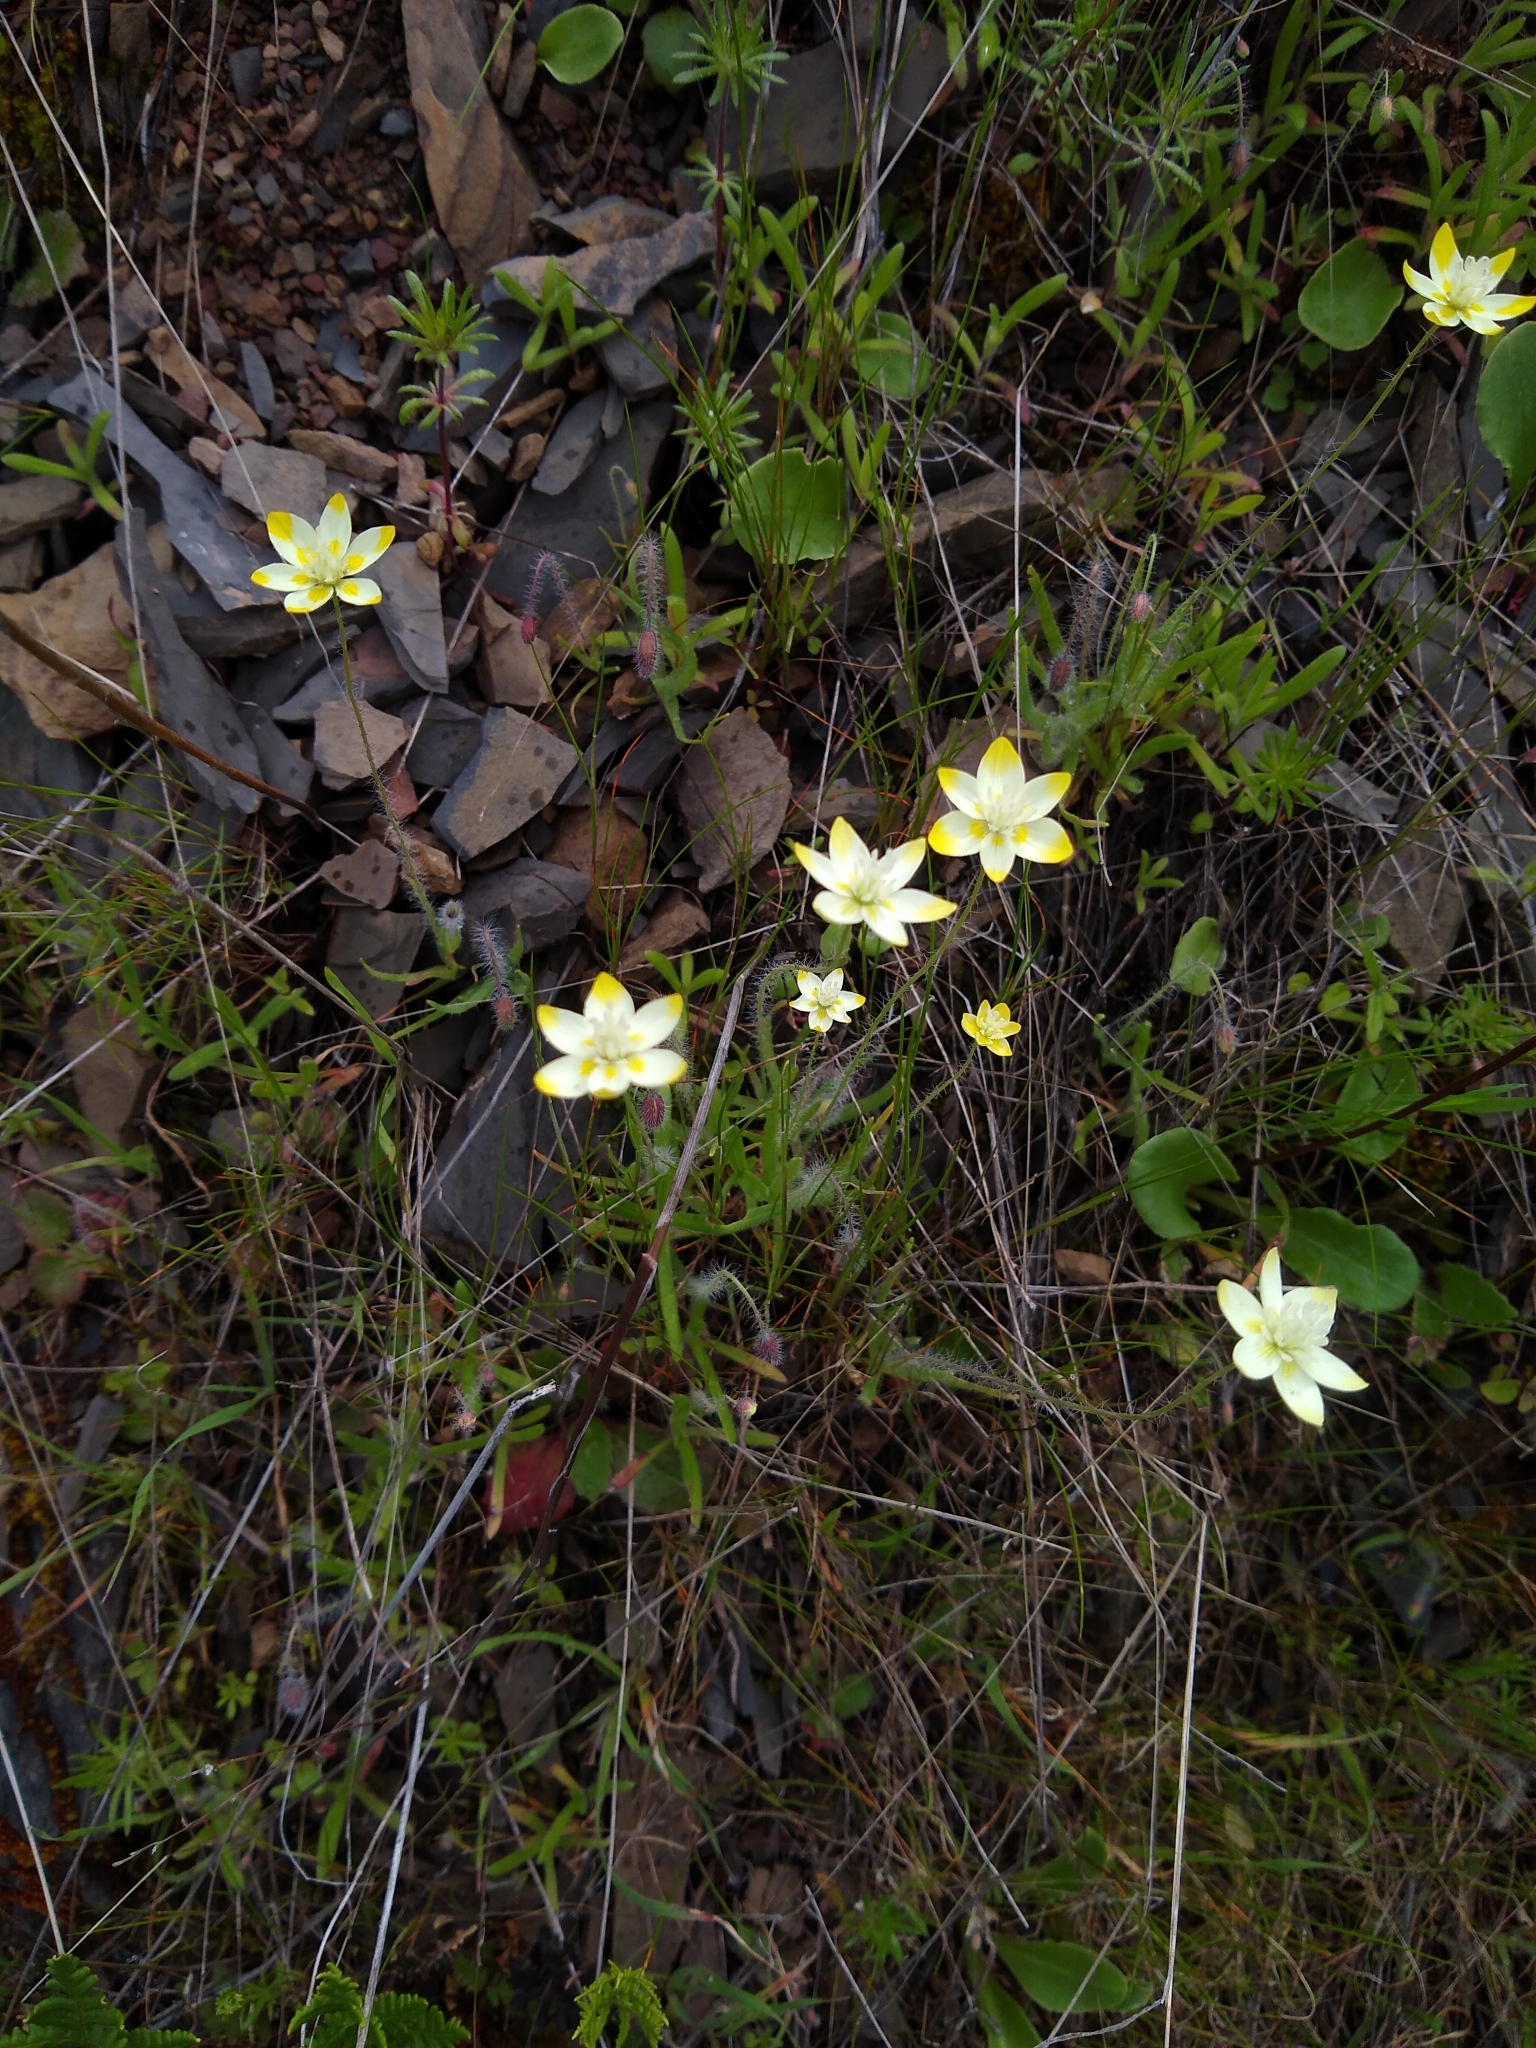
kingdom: Plantae
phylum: Tracheophyta
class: Magnoliopsida
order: Ranunculales
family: Papaveraceae
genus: Platystemon
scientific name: Platystemon californicus
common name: Cream-cups
